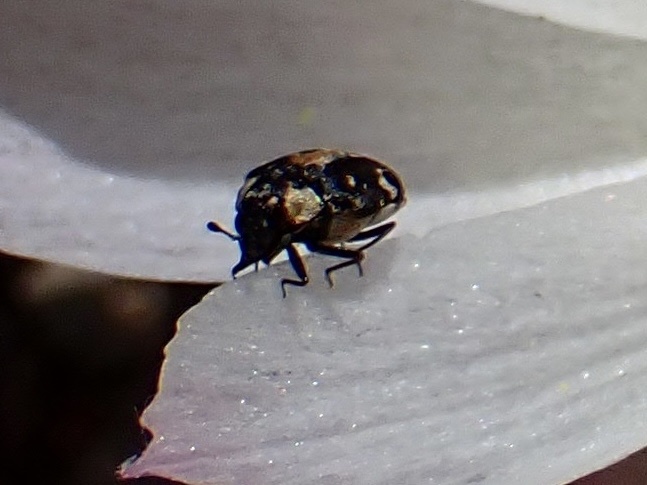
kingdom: Animalia
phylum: Arthropoda
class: Insecta
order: Coleoptera
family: Dermestidae
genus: Anthrenus
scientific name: Anthrenus lepidus
